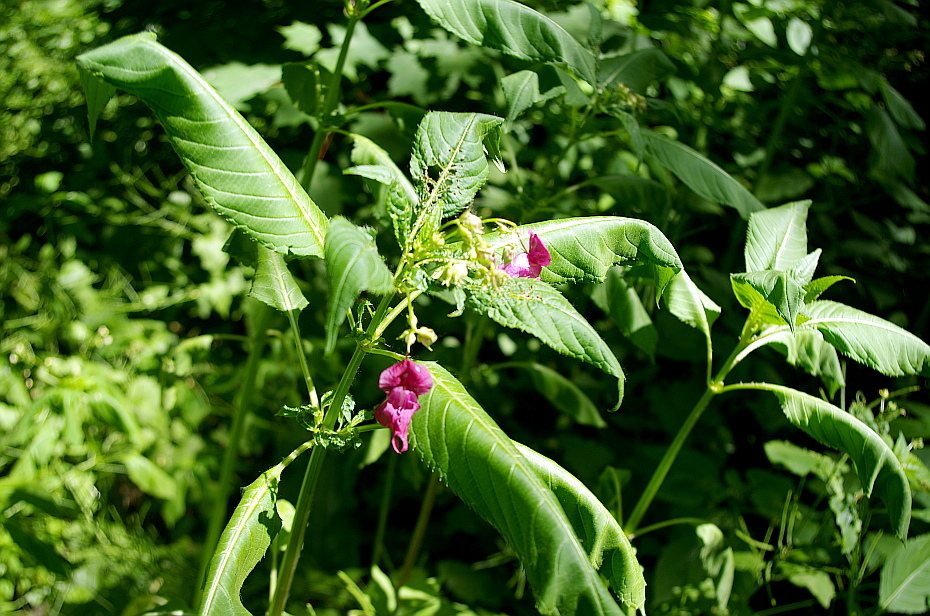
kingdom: Plantae
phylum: Tracheophyta
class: Magnoliopsida
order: Ericales
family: Balsaminaceae
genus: Impatiens
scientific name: Impatiens glandulifera
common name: Himalayan balsam
